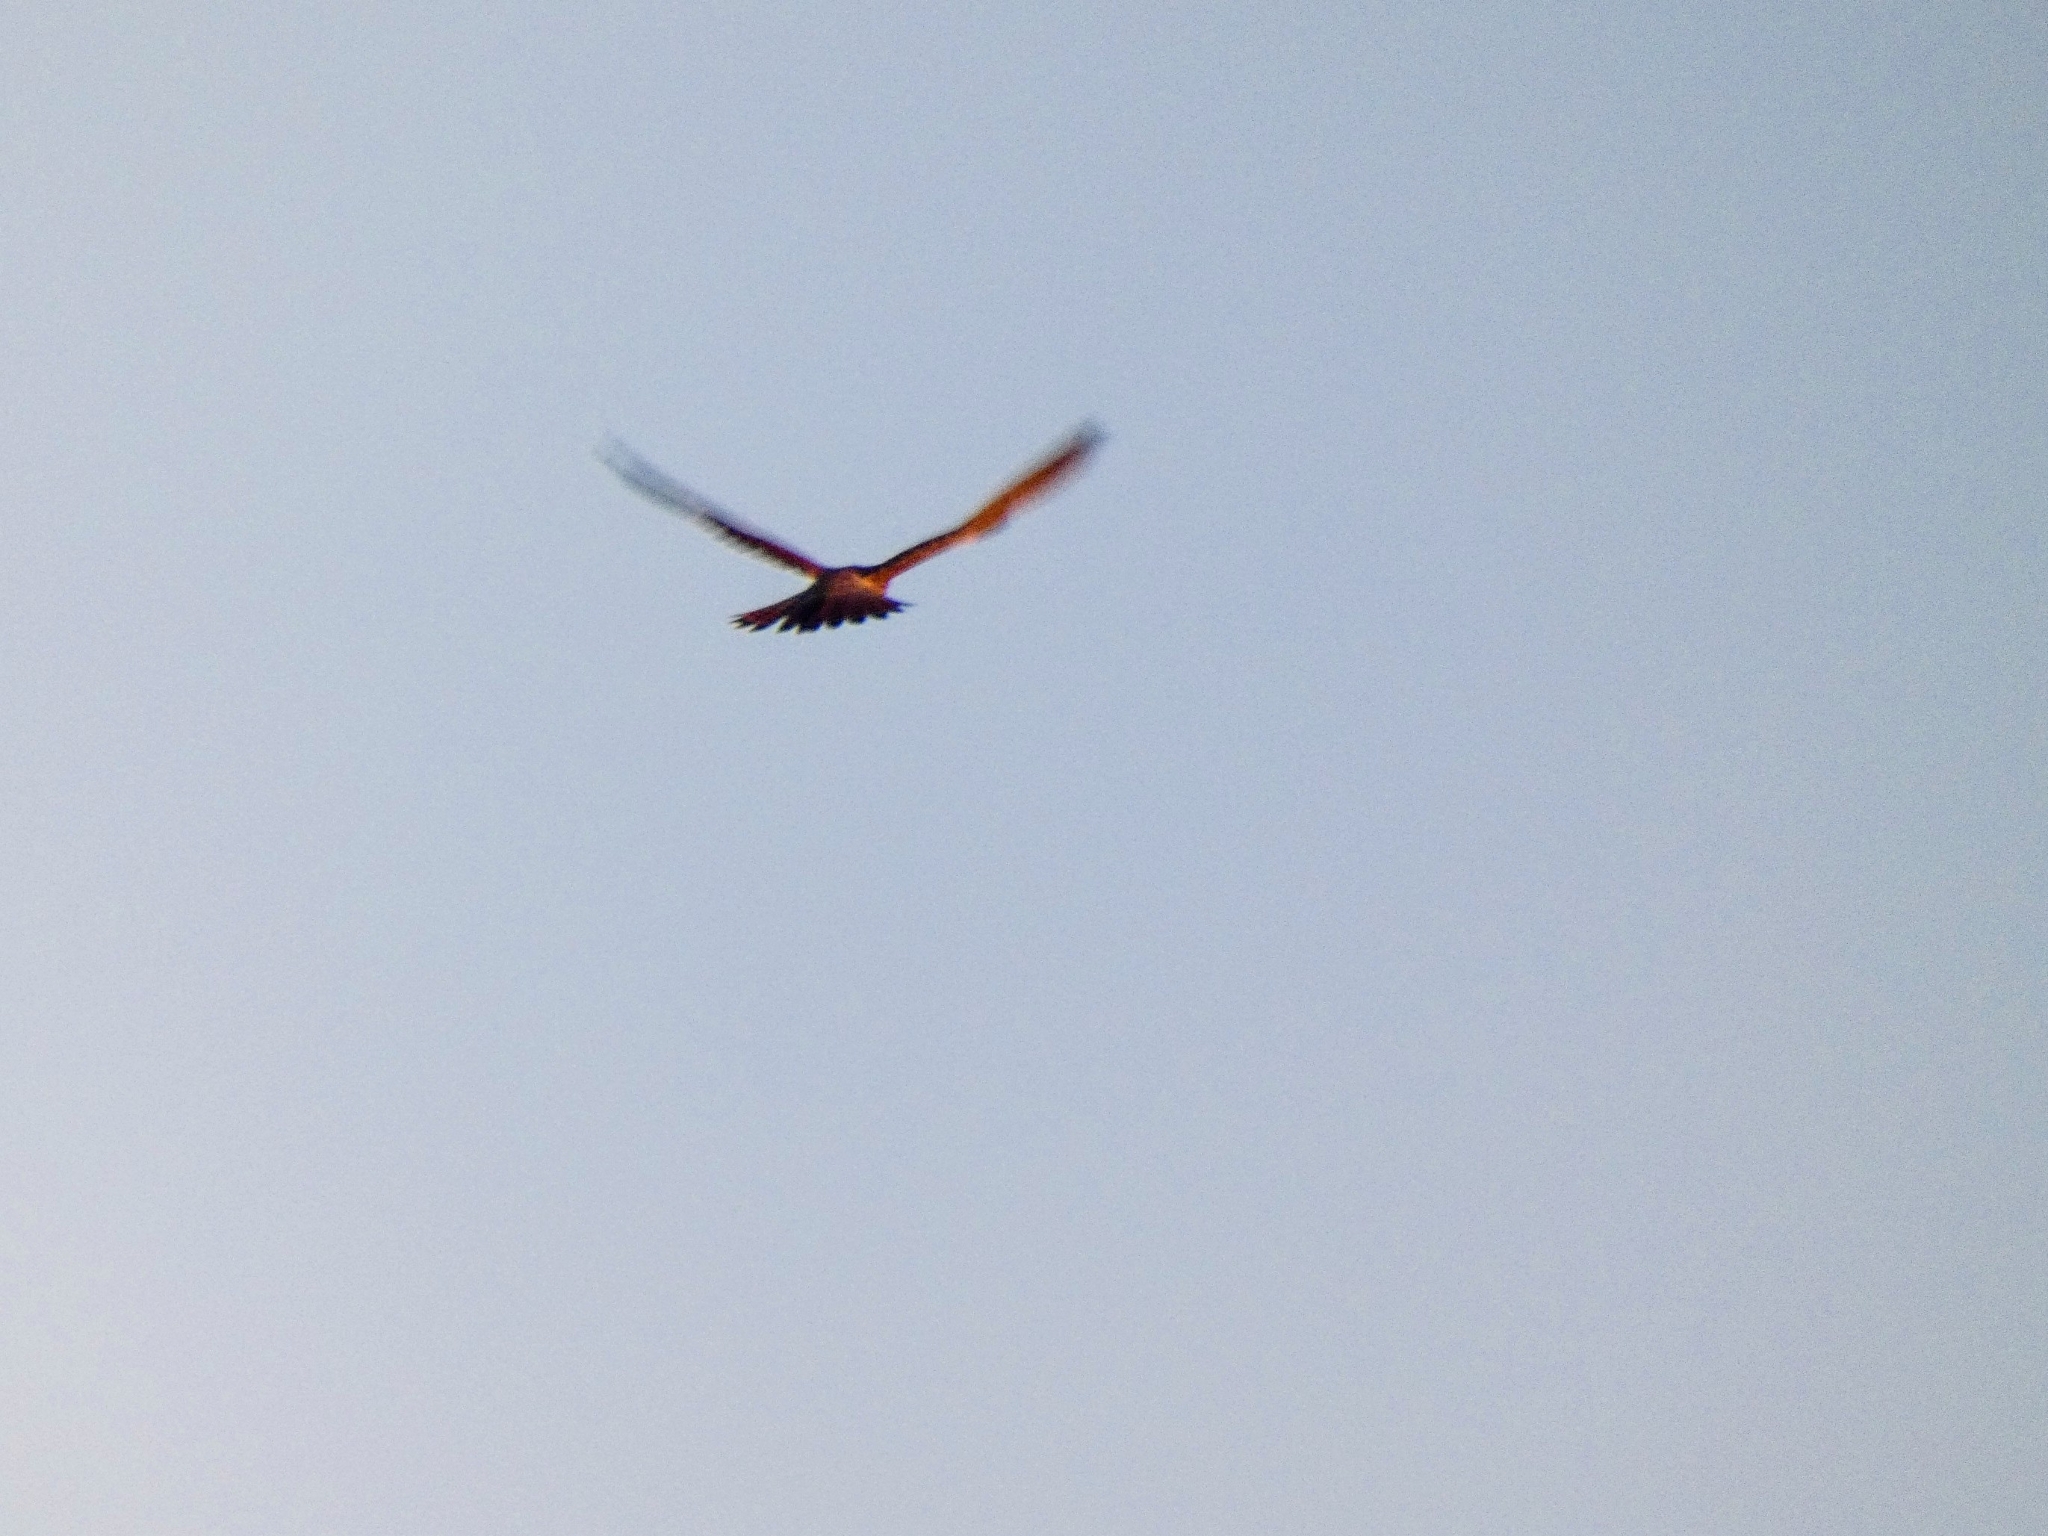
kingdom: Animalia
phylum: Chordata
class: Aves
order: Falconiformes
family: Falconidae
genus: Falco
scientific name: Falco tinnunculus
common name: Common kestrel
